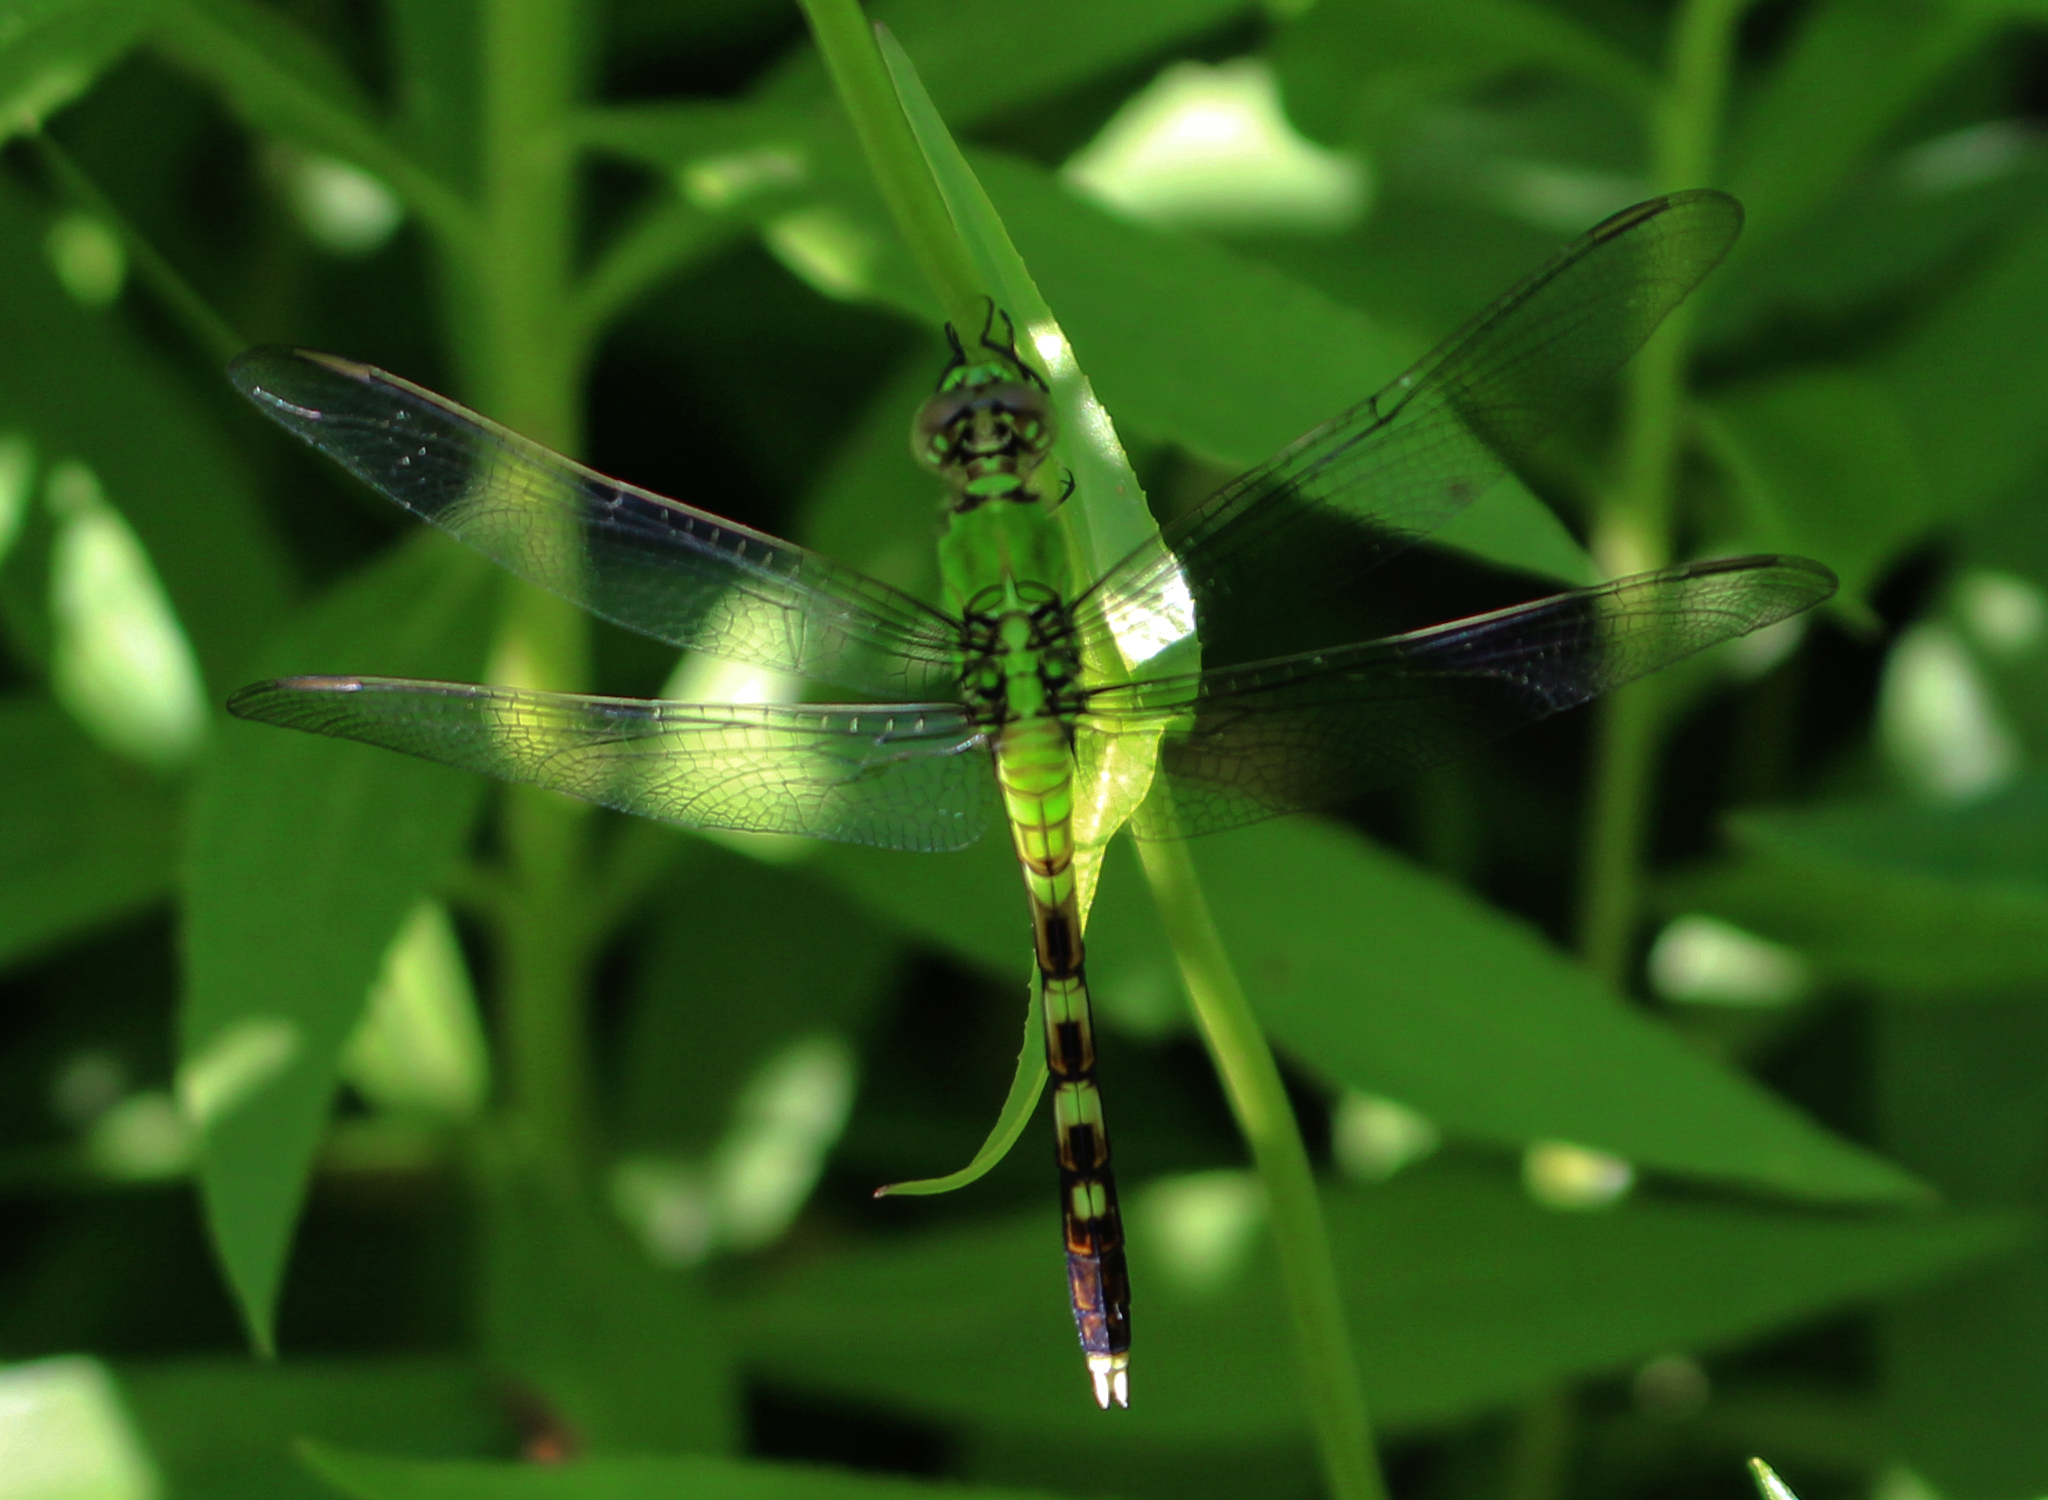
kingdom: Animalia
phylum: Arthropoda
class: Insecta
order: Odonata
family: Libellulidae
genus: Erythemis
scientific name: Erythemis simplicicollis
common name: Eastern pondhawk
